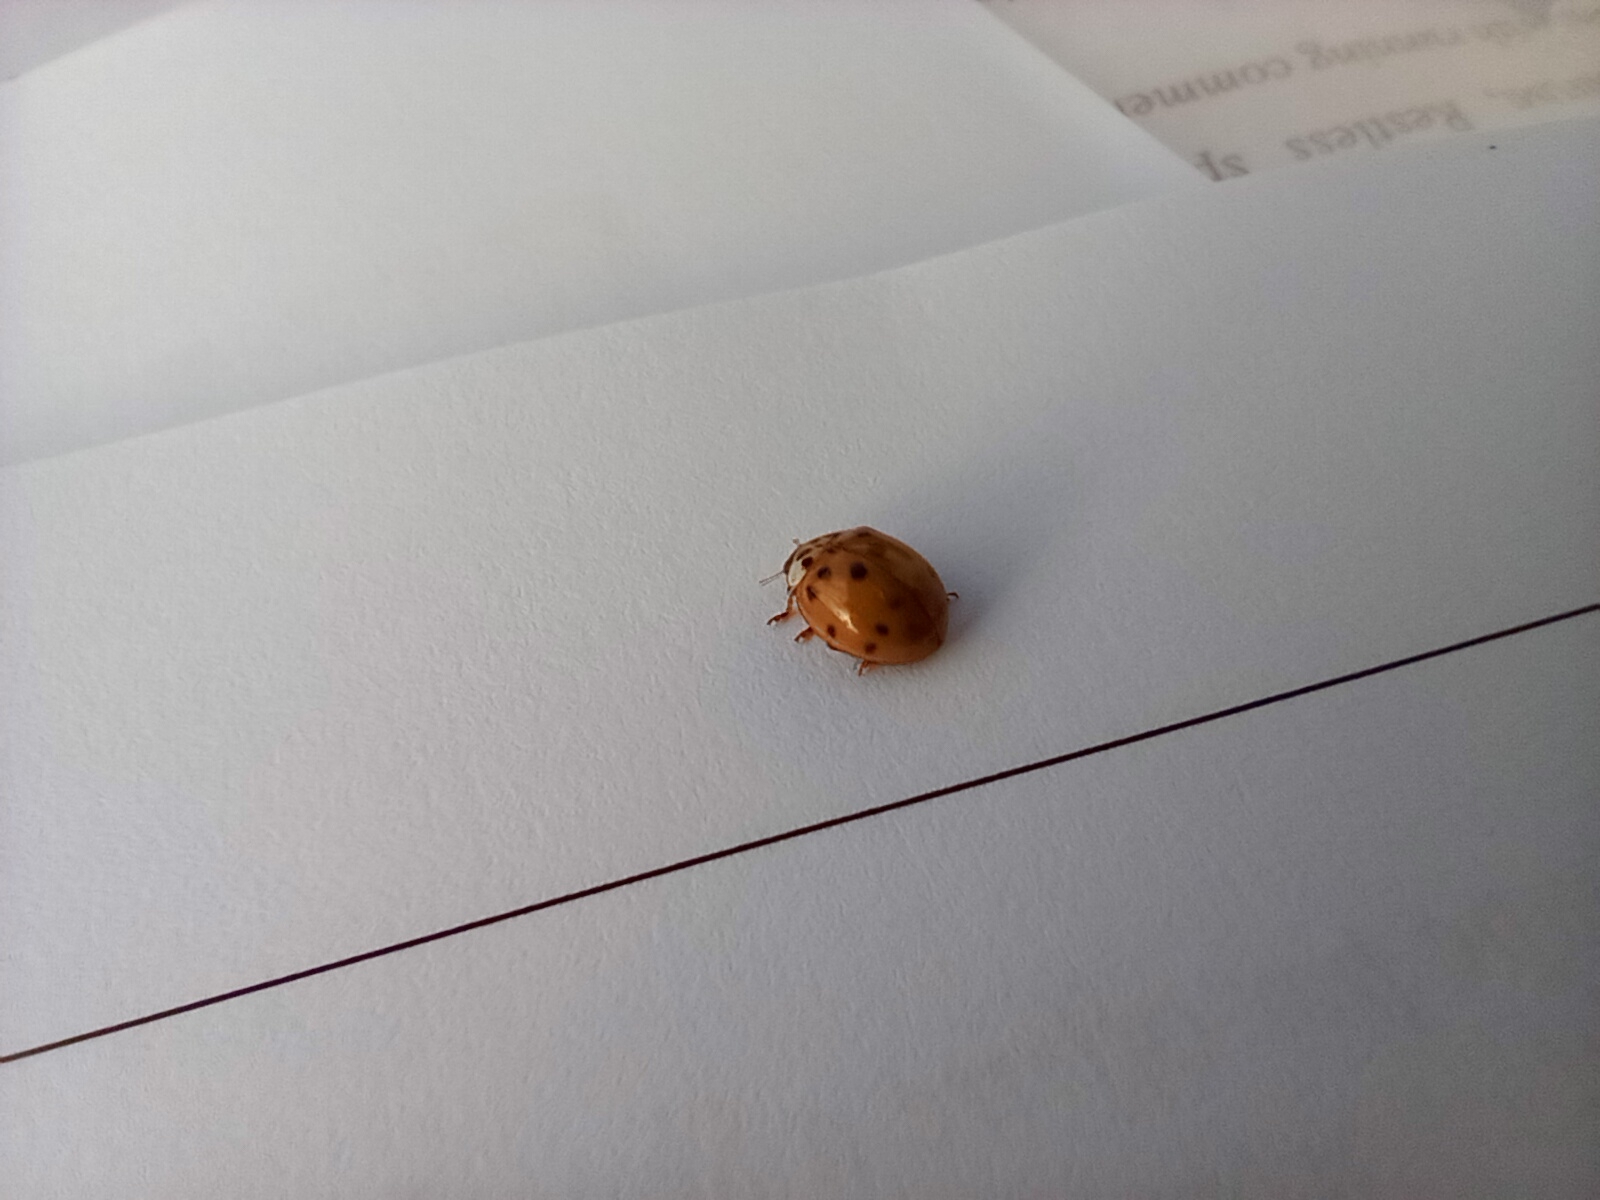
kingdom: Animalia
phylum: Arthropoda
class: Insecta
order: Coleoptera
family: Coccinellidae
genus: Harmonia
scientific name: Harmonia axyridis
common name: Harlequin ladybird
